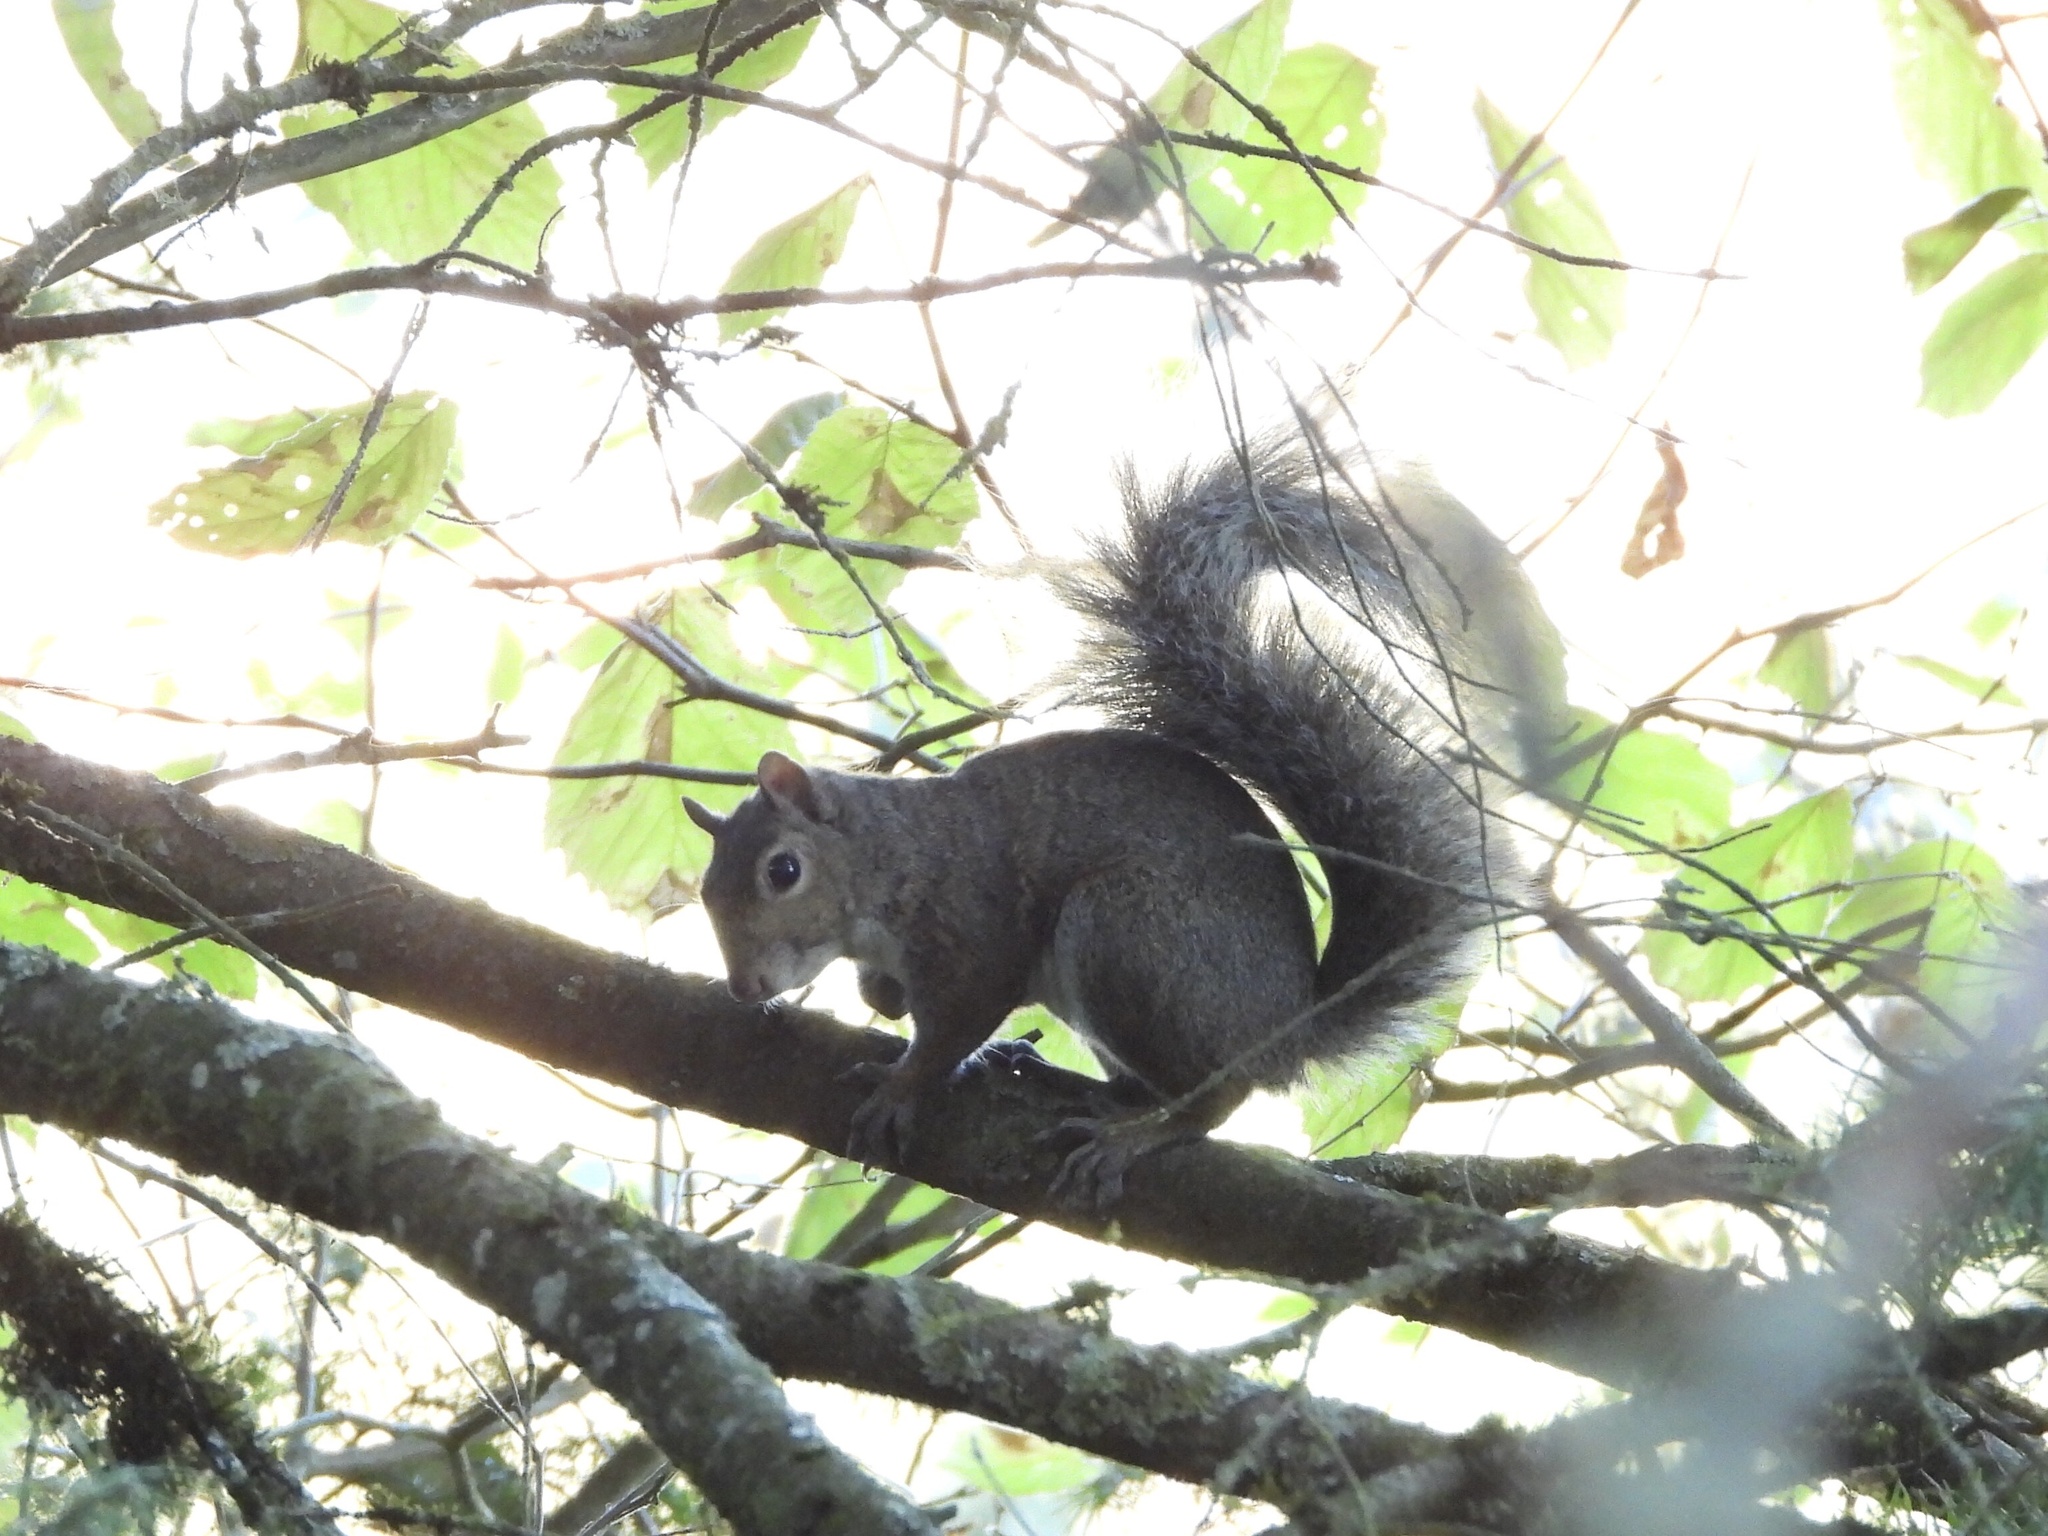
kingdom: Animalia
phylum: Chordata
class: Mammalia
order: Rodentia
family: Sciuridae
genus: Sciurus
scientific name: Sciurus carolinensis
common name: Eastern gray squirrel
